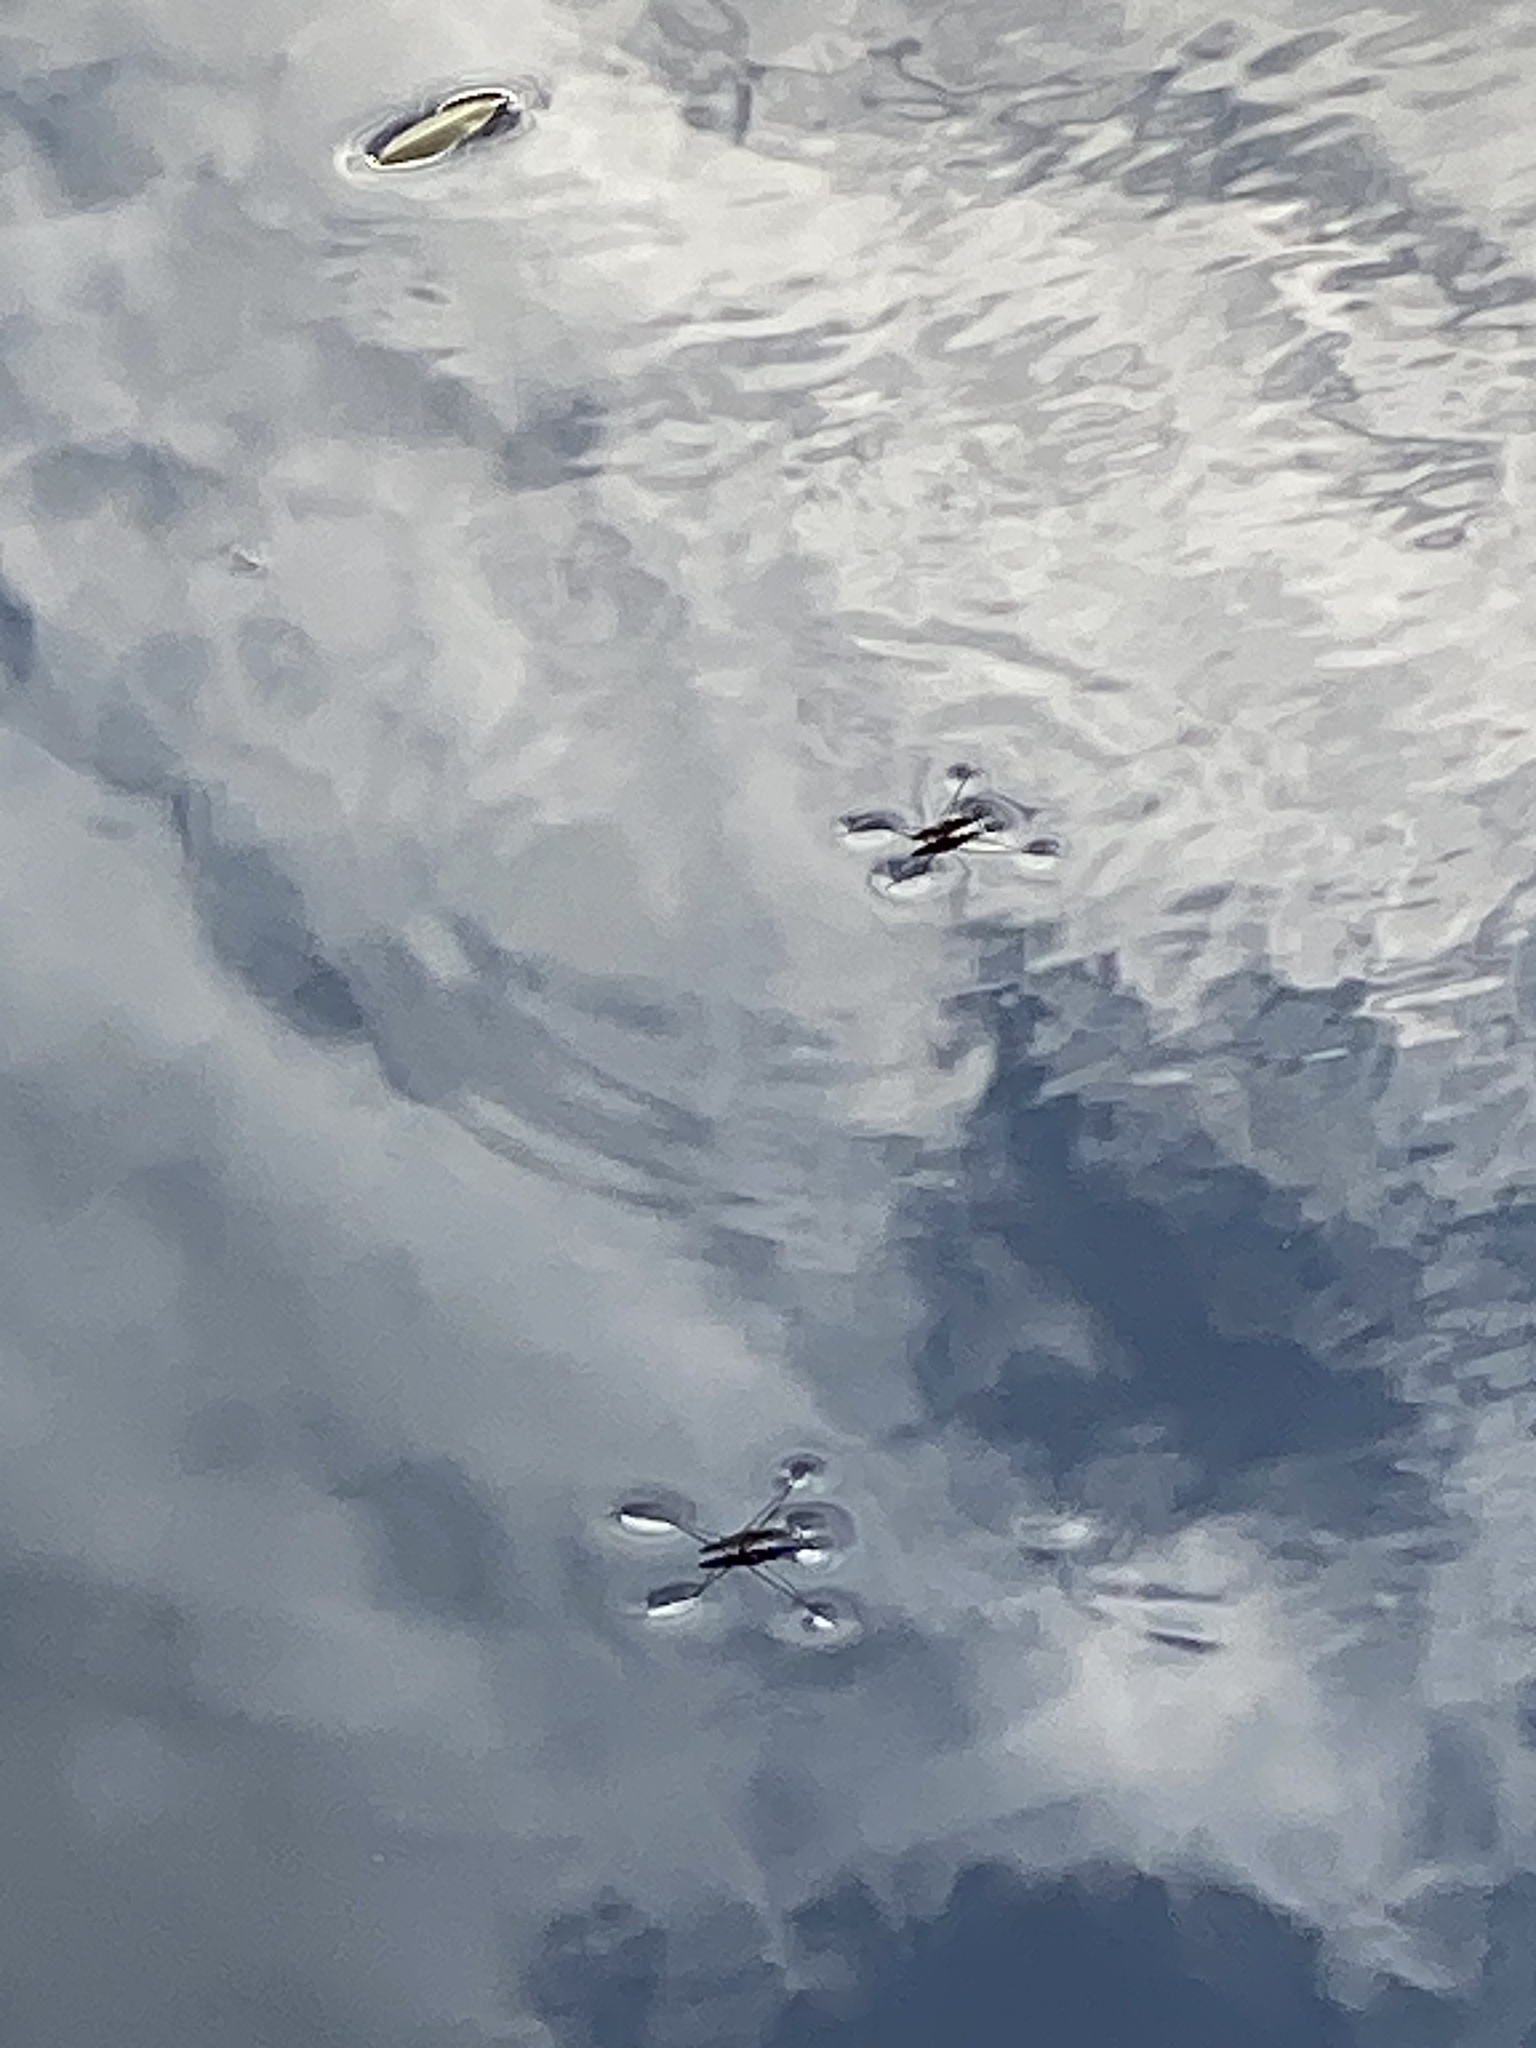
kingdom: Animalia
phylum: Arthropoda
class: Insecta
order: Hemiptera
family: Gerridae
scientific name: Gerridae
